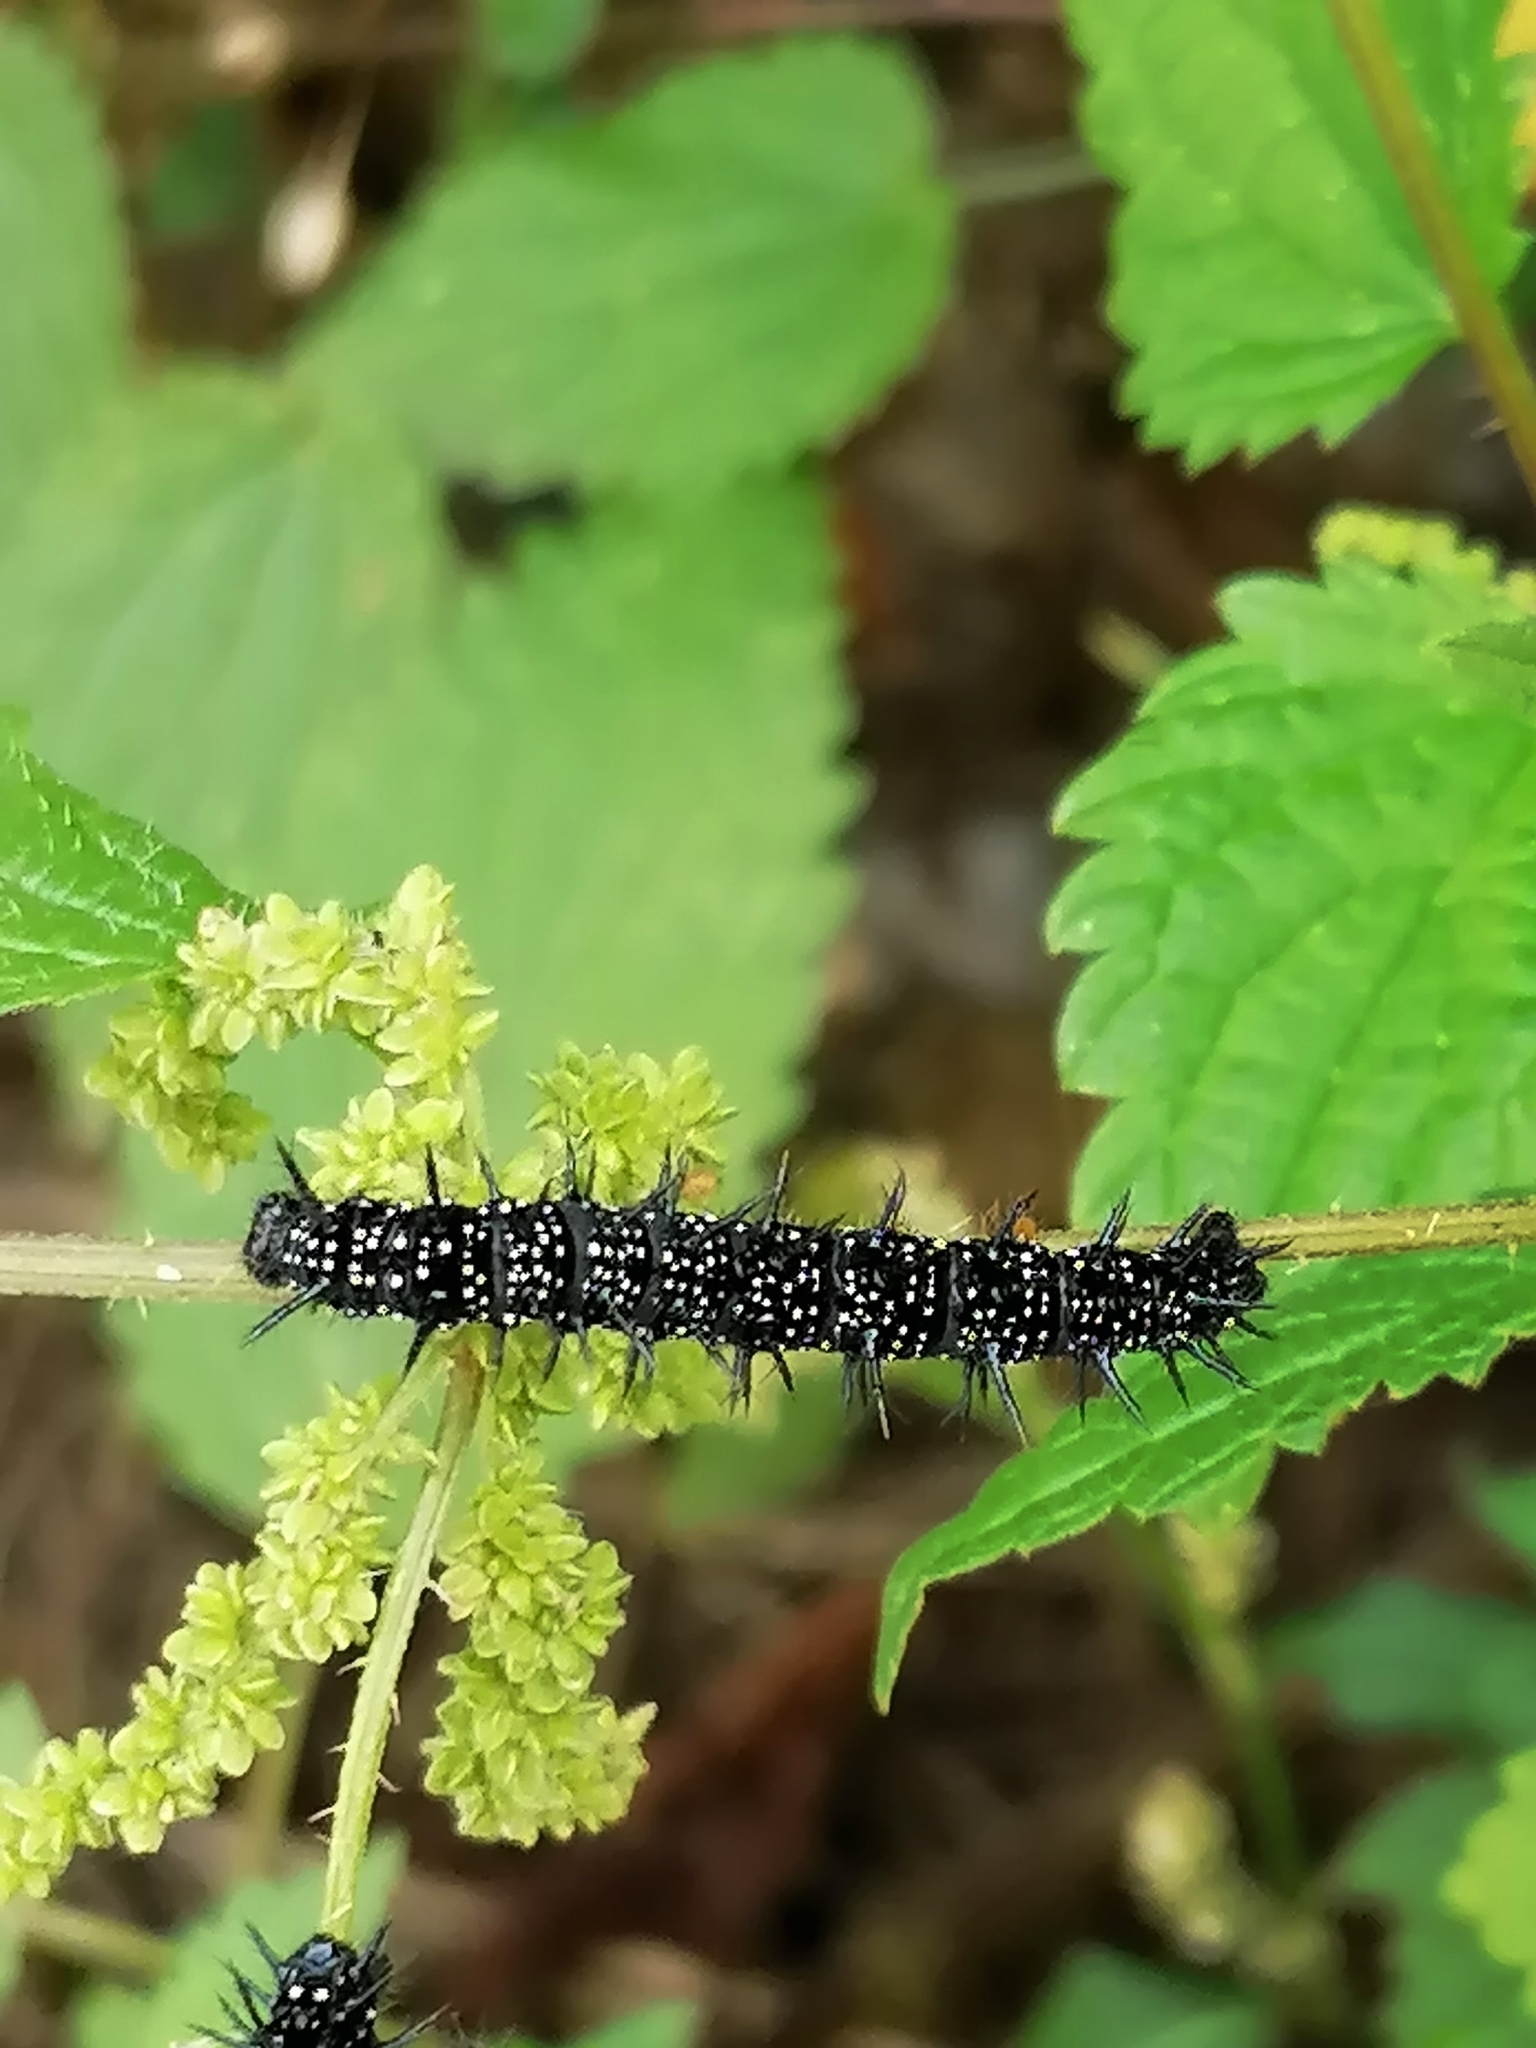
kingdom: Animalia
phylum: Arthropoda
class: Insecta
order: Lepidoptera
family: Nymphalidae
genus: Aglais
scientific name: Aglais io
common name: Peacock
